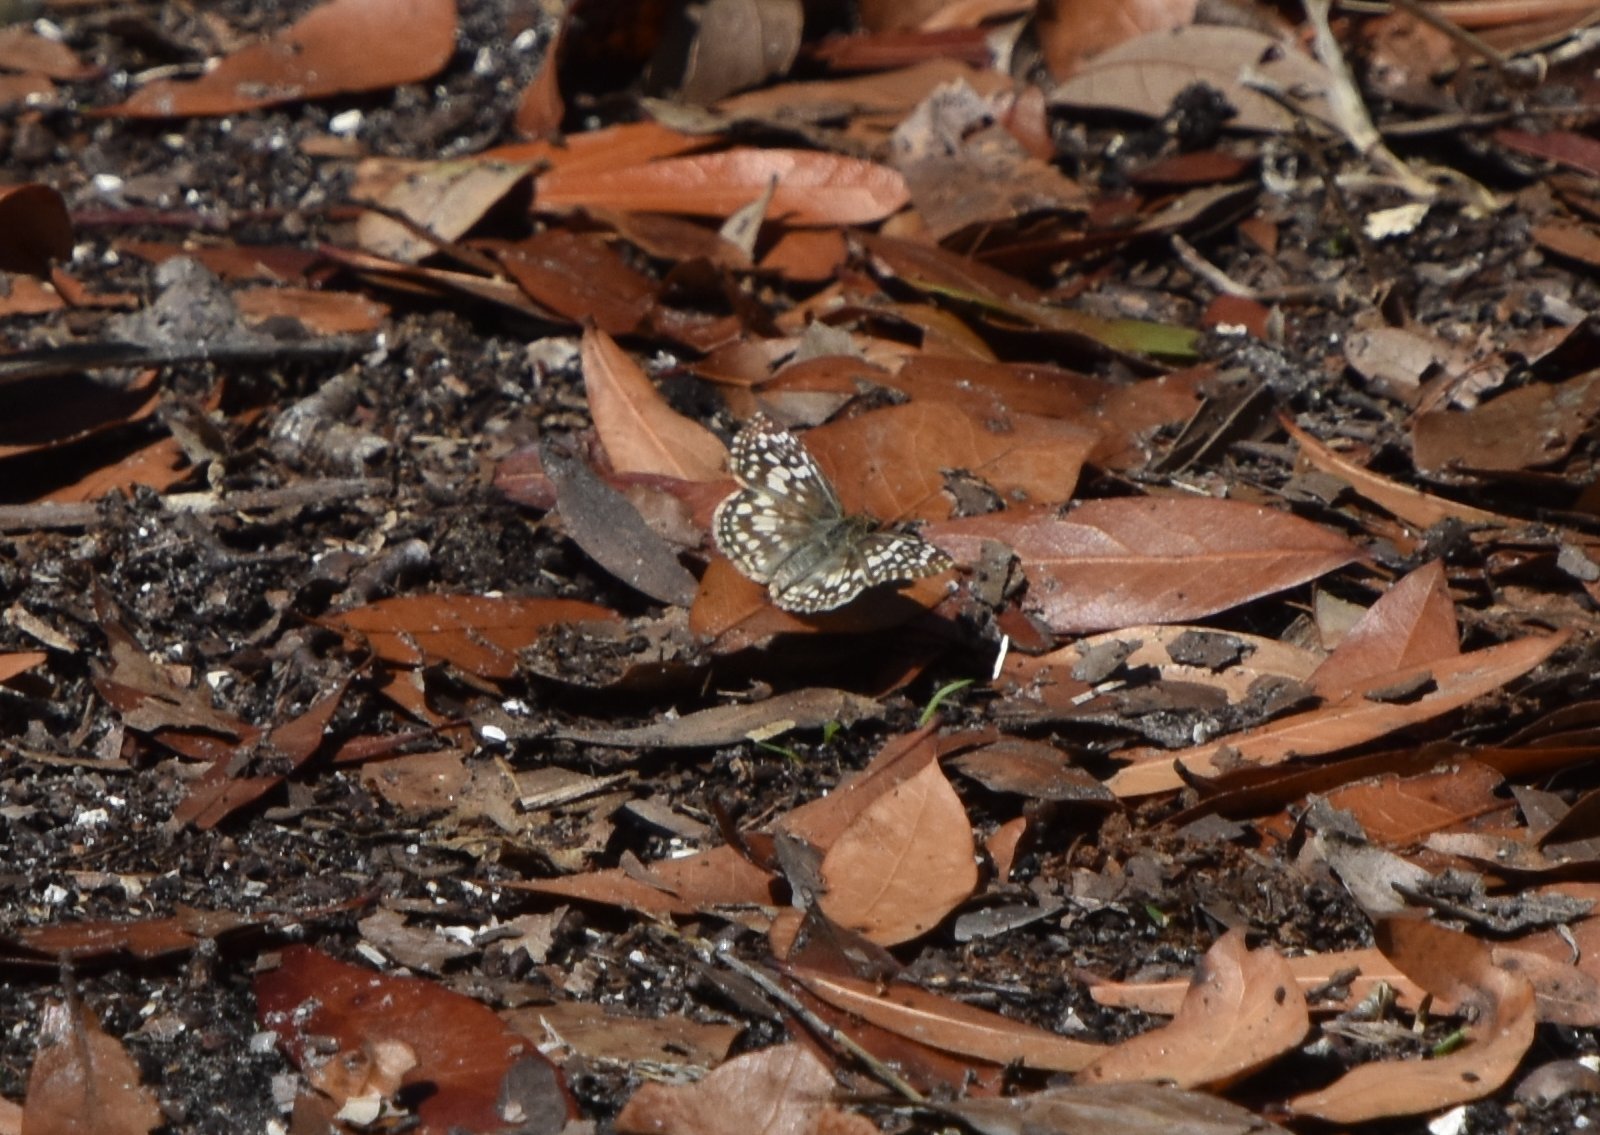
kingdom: Animalia
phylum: Arthropoda
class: Insecta
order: Lepidoptera
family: Hesperiidae
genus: Pyrgus
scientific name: Pyrgus oileus
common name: Tropical checkered-skipper
